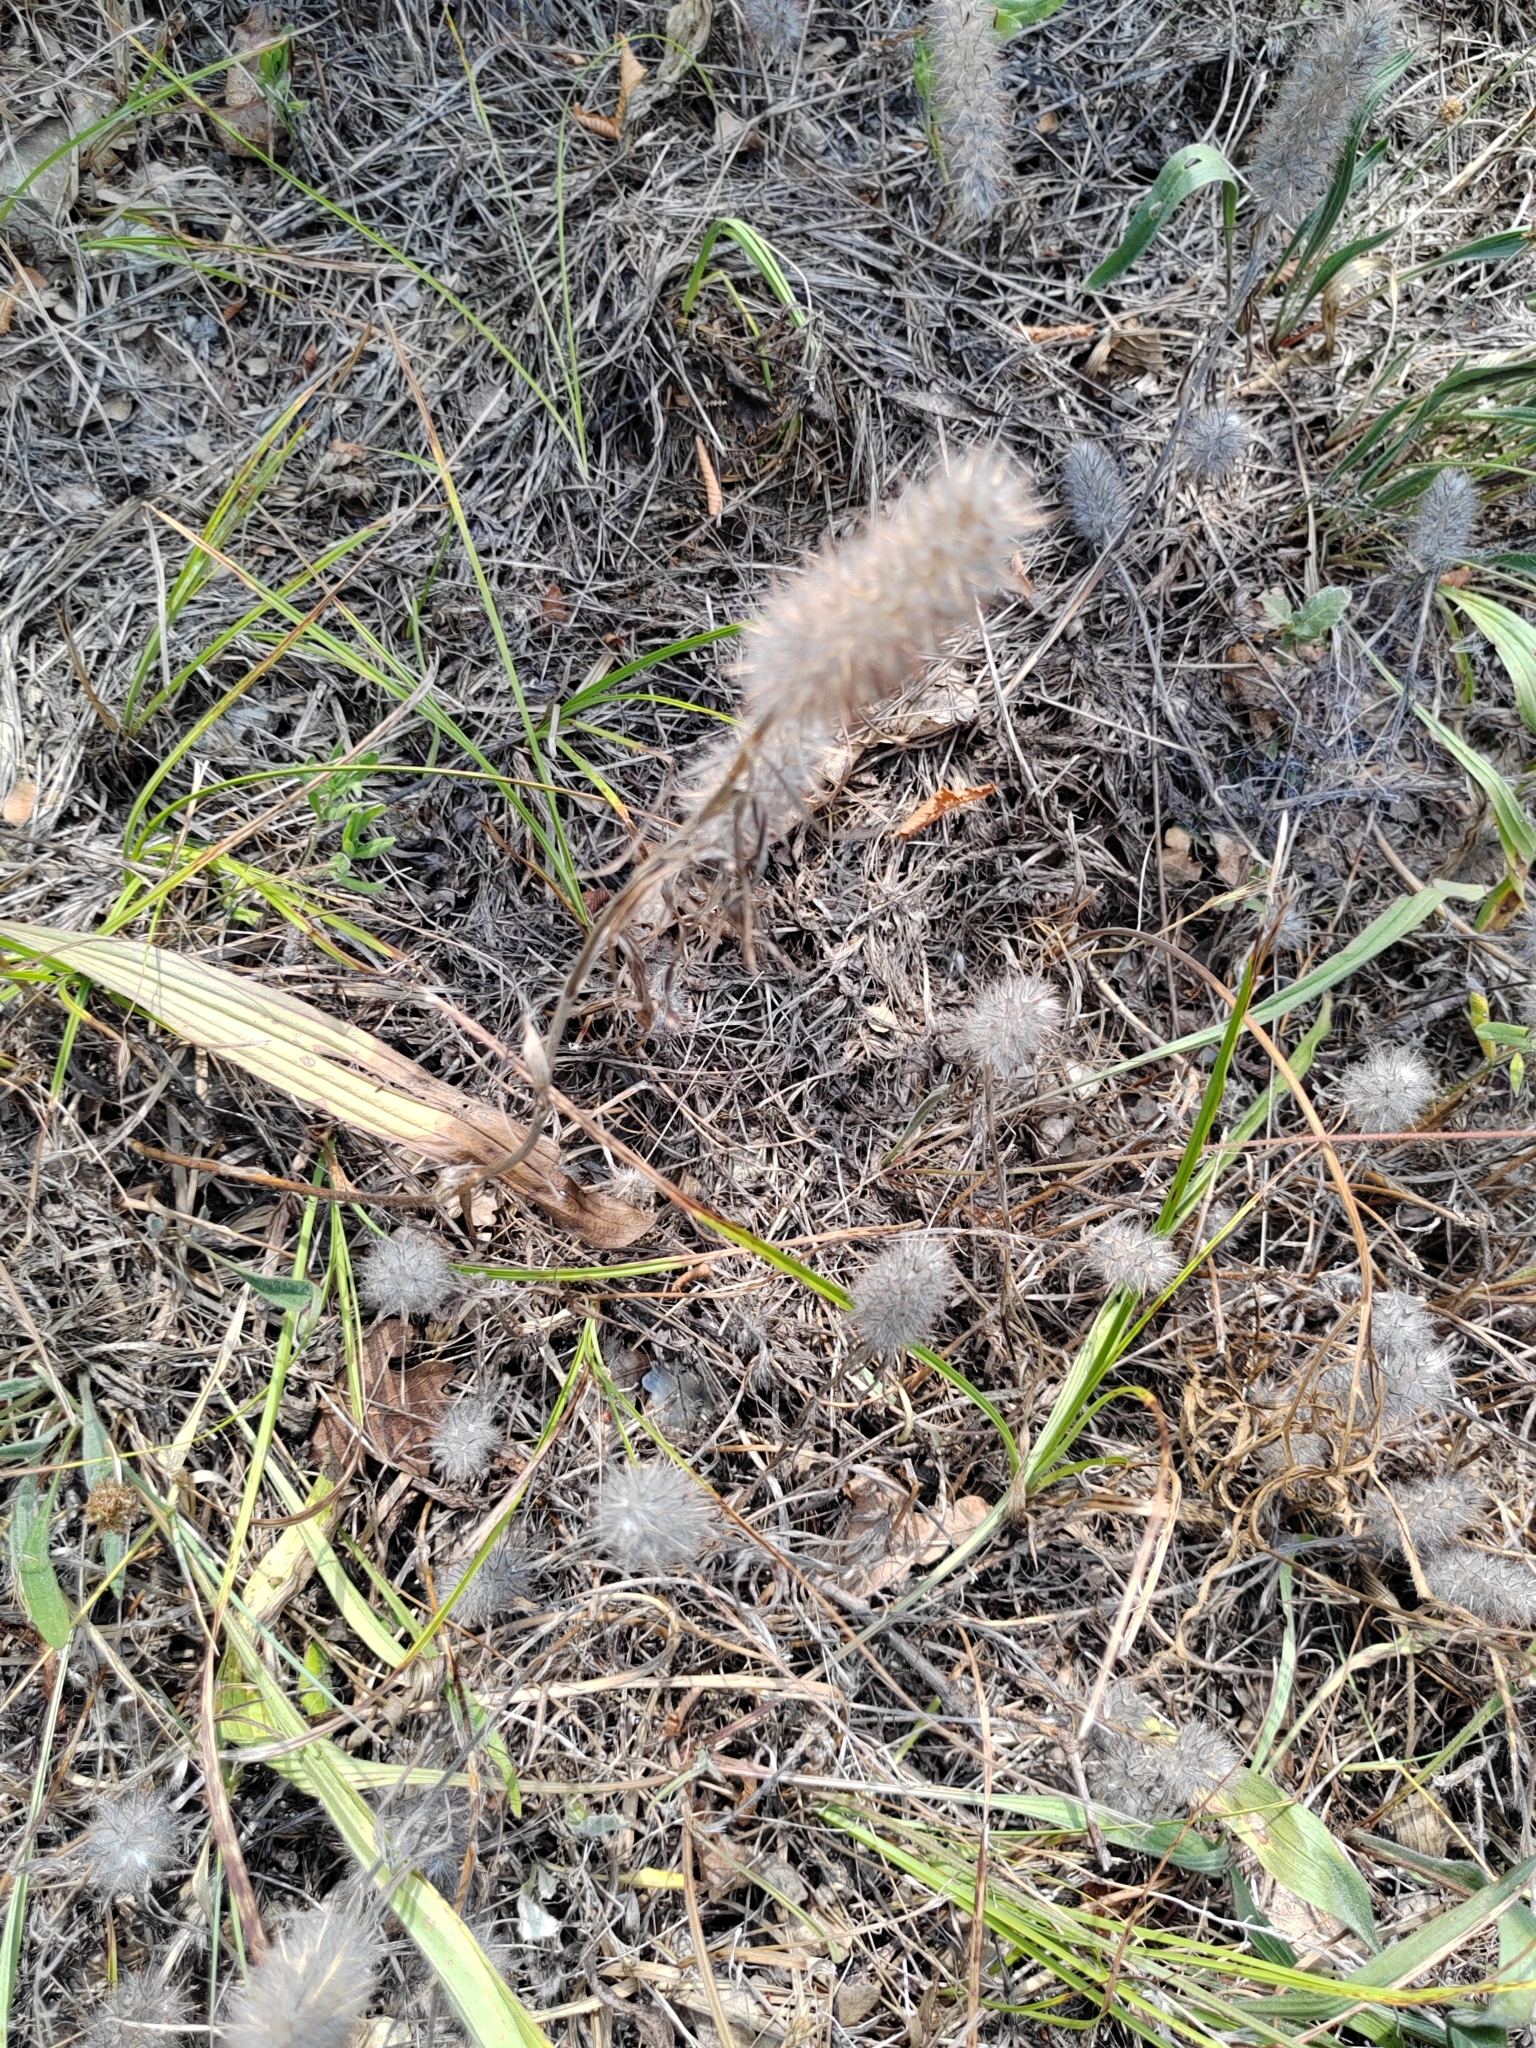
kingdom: Plantae
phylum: Tracheophyta
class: Magnoliopsida
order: Fabales
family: Fabaceae
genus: Trifolium
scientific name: Trifolium angustifolium
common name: Narrow clover
